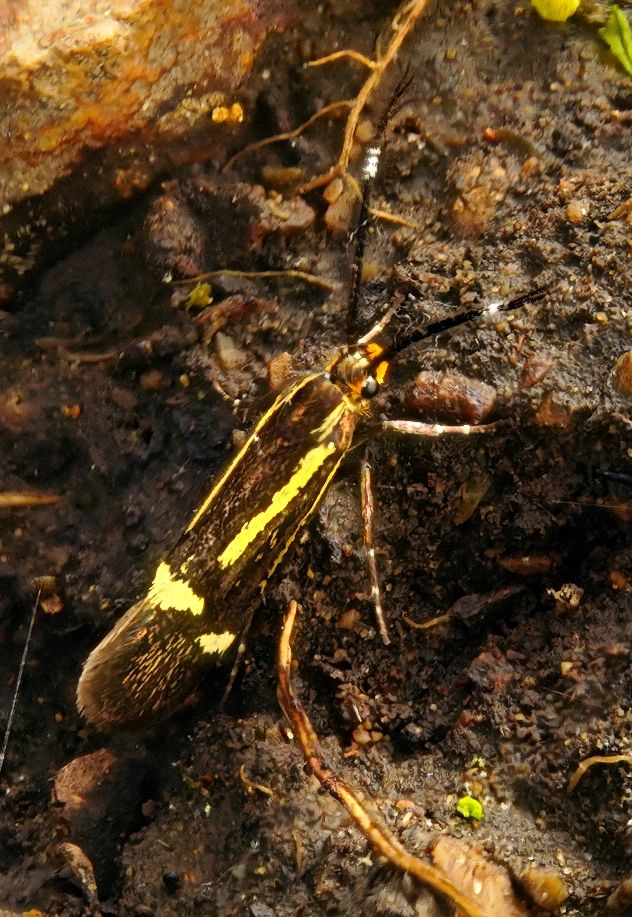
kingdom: Animalia
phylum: Arthropoda
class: Insecta
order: Lepidoptera
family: Oecophoridae
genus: Dafa
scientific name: Dafa Esperia sulphurella
